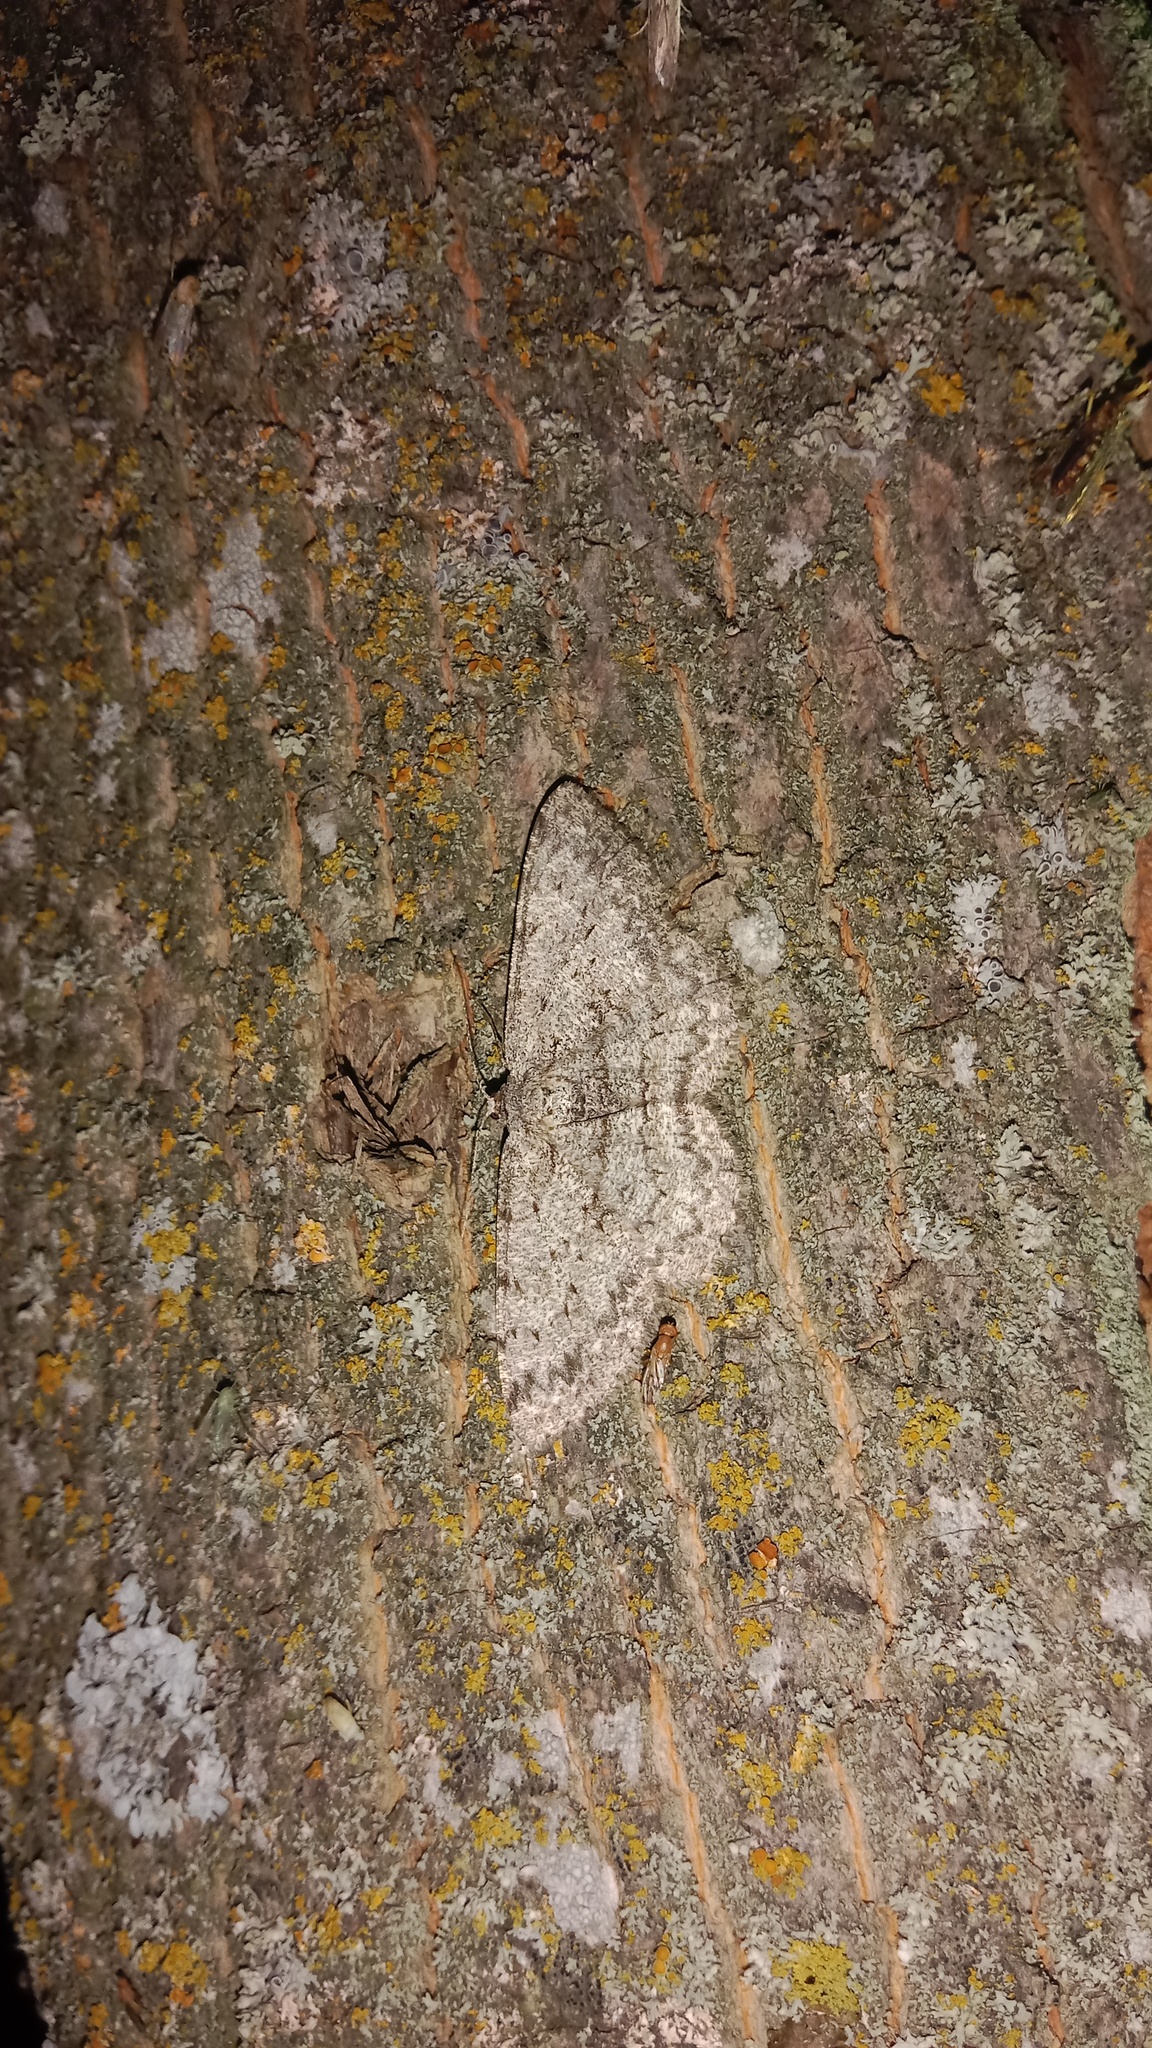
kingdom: Animalia
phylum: Arthropoda
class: Insecta
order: Lepidoptera
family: Geometridae
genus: Hypomecis
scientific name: Hypomecis punctinalis
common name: Pale oak beauty
